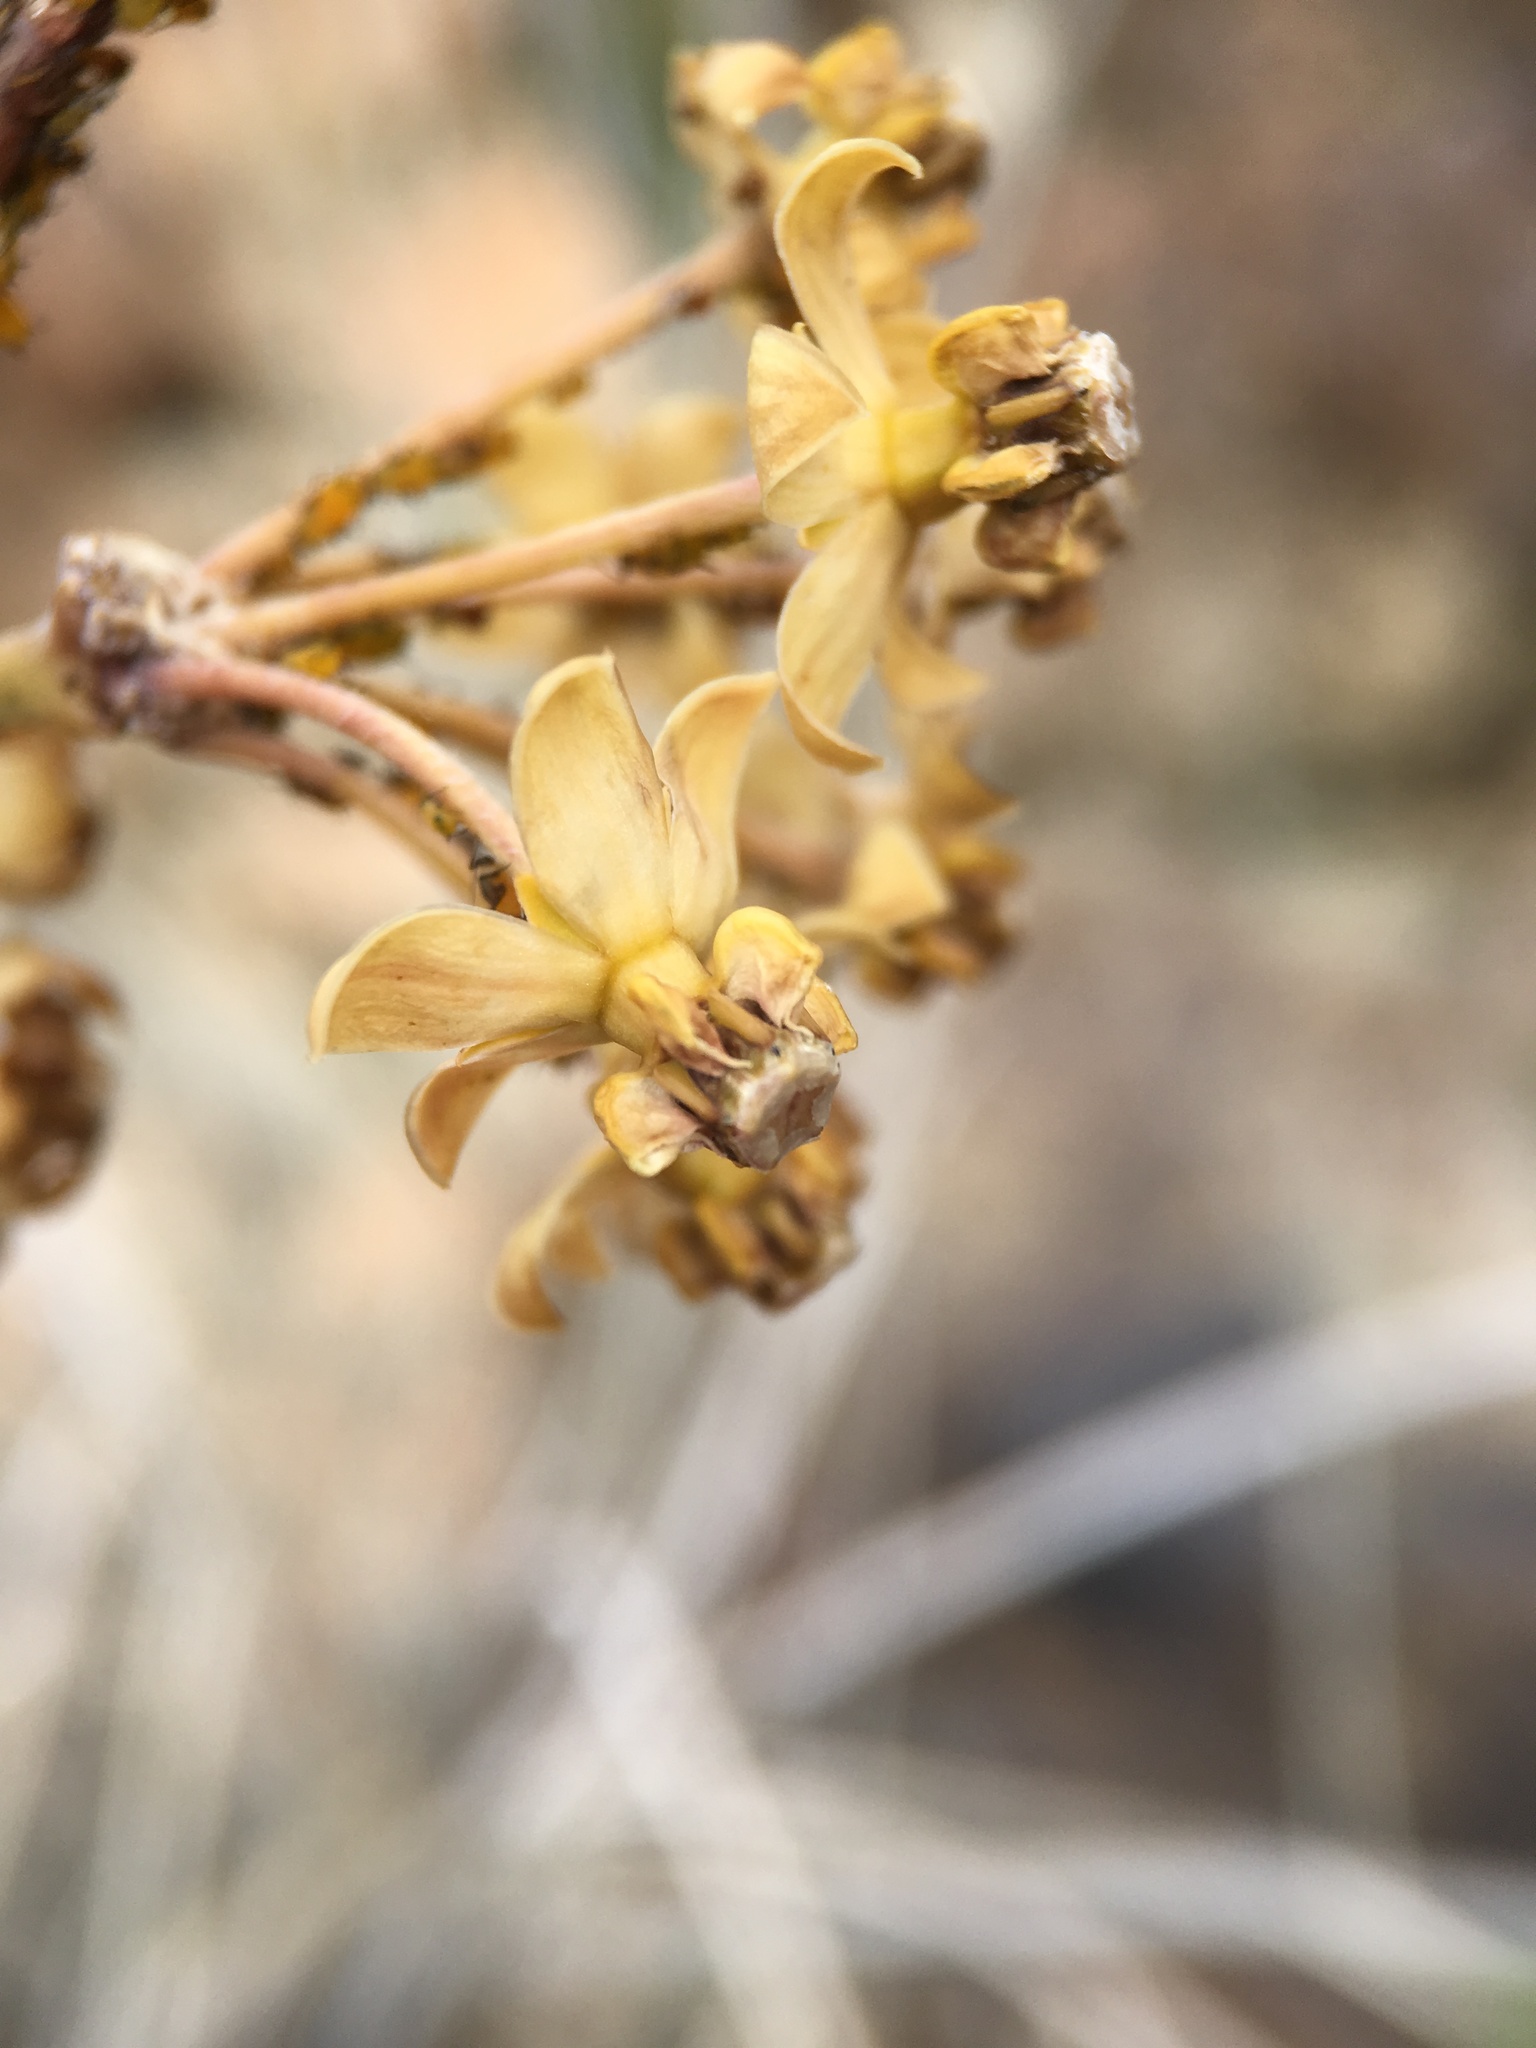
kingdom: Plantae
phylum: Tracheophyta
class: Magnoliopsida
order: Gentianales
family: Apocynaceae
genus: Asclepias
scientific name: Asclepias albicans
